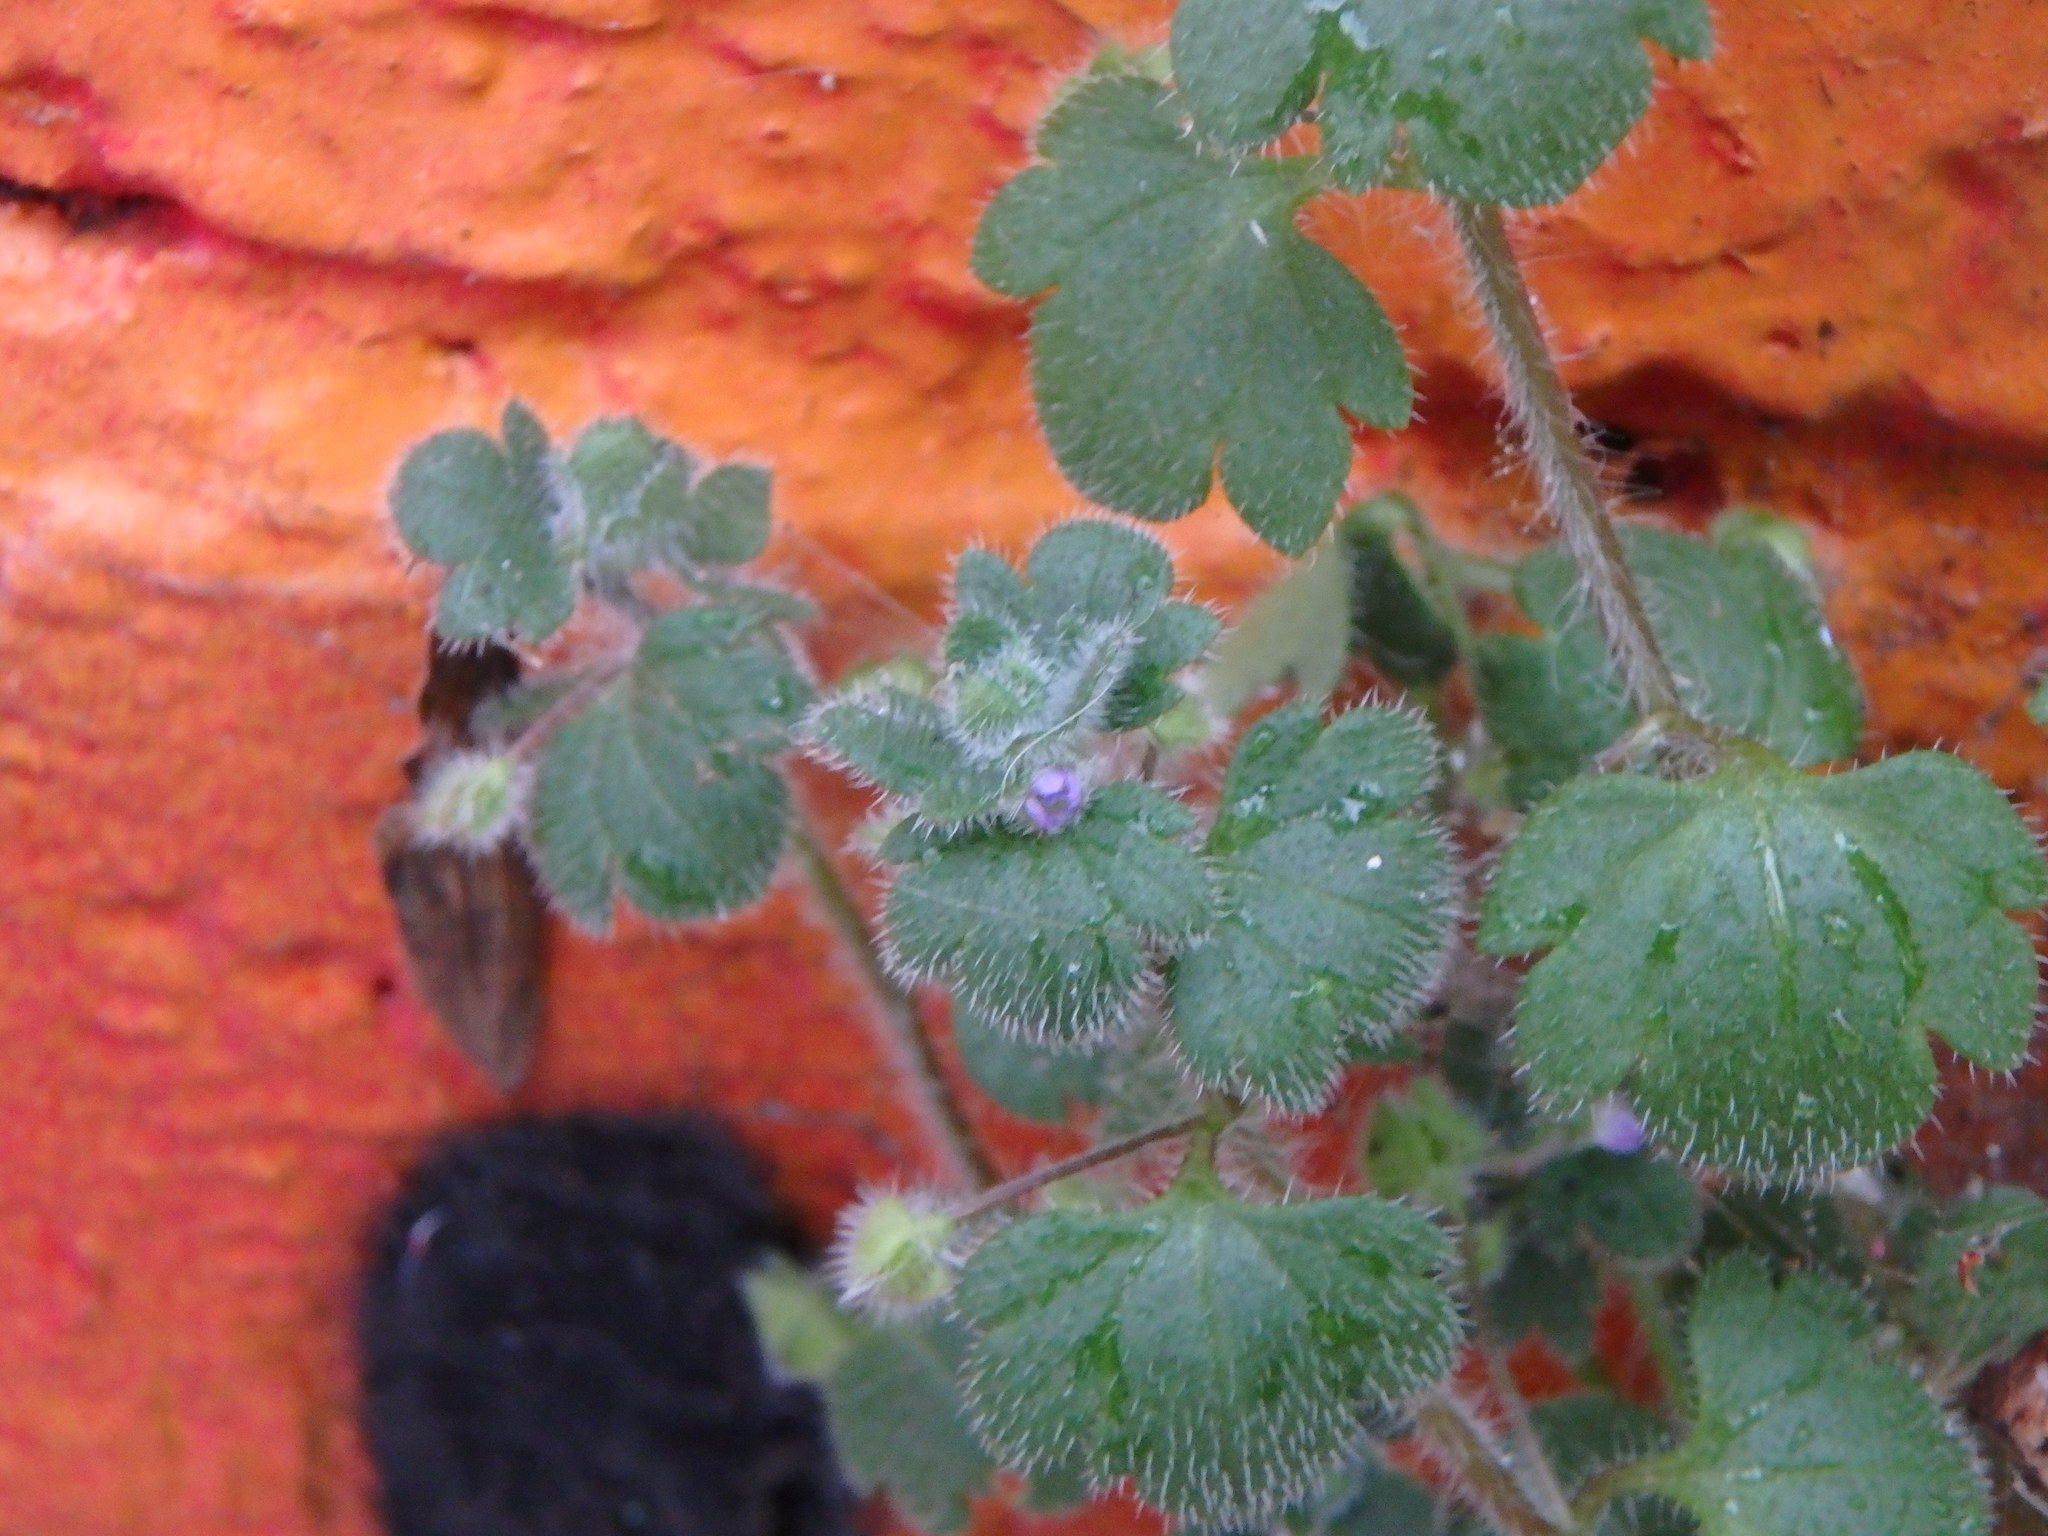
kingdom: Plantae
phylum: Tracheophyta
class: Magnoliopsida
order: Lamiales
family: Plantaginaceae
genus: Veronica
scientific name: Veronica hederifolia
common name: Ivy-leaved speedwell
